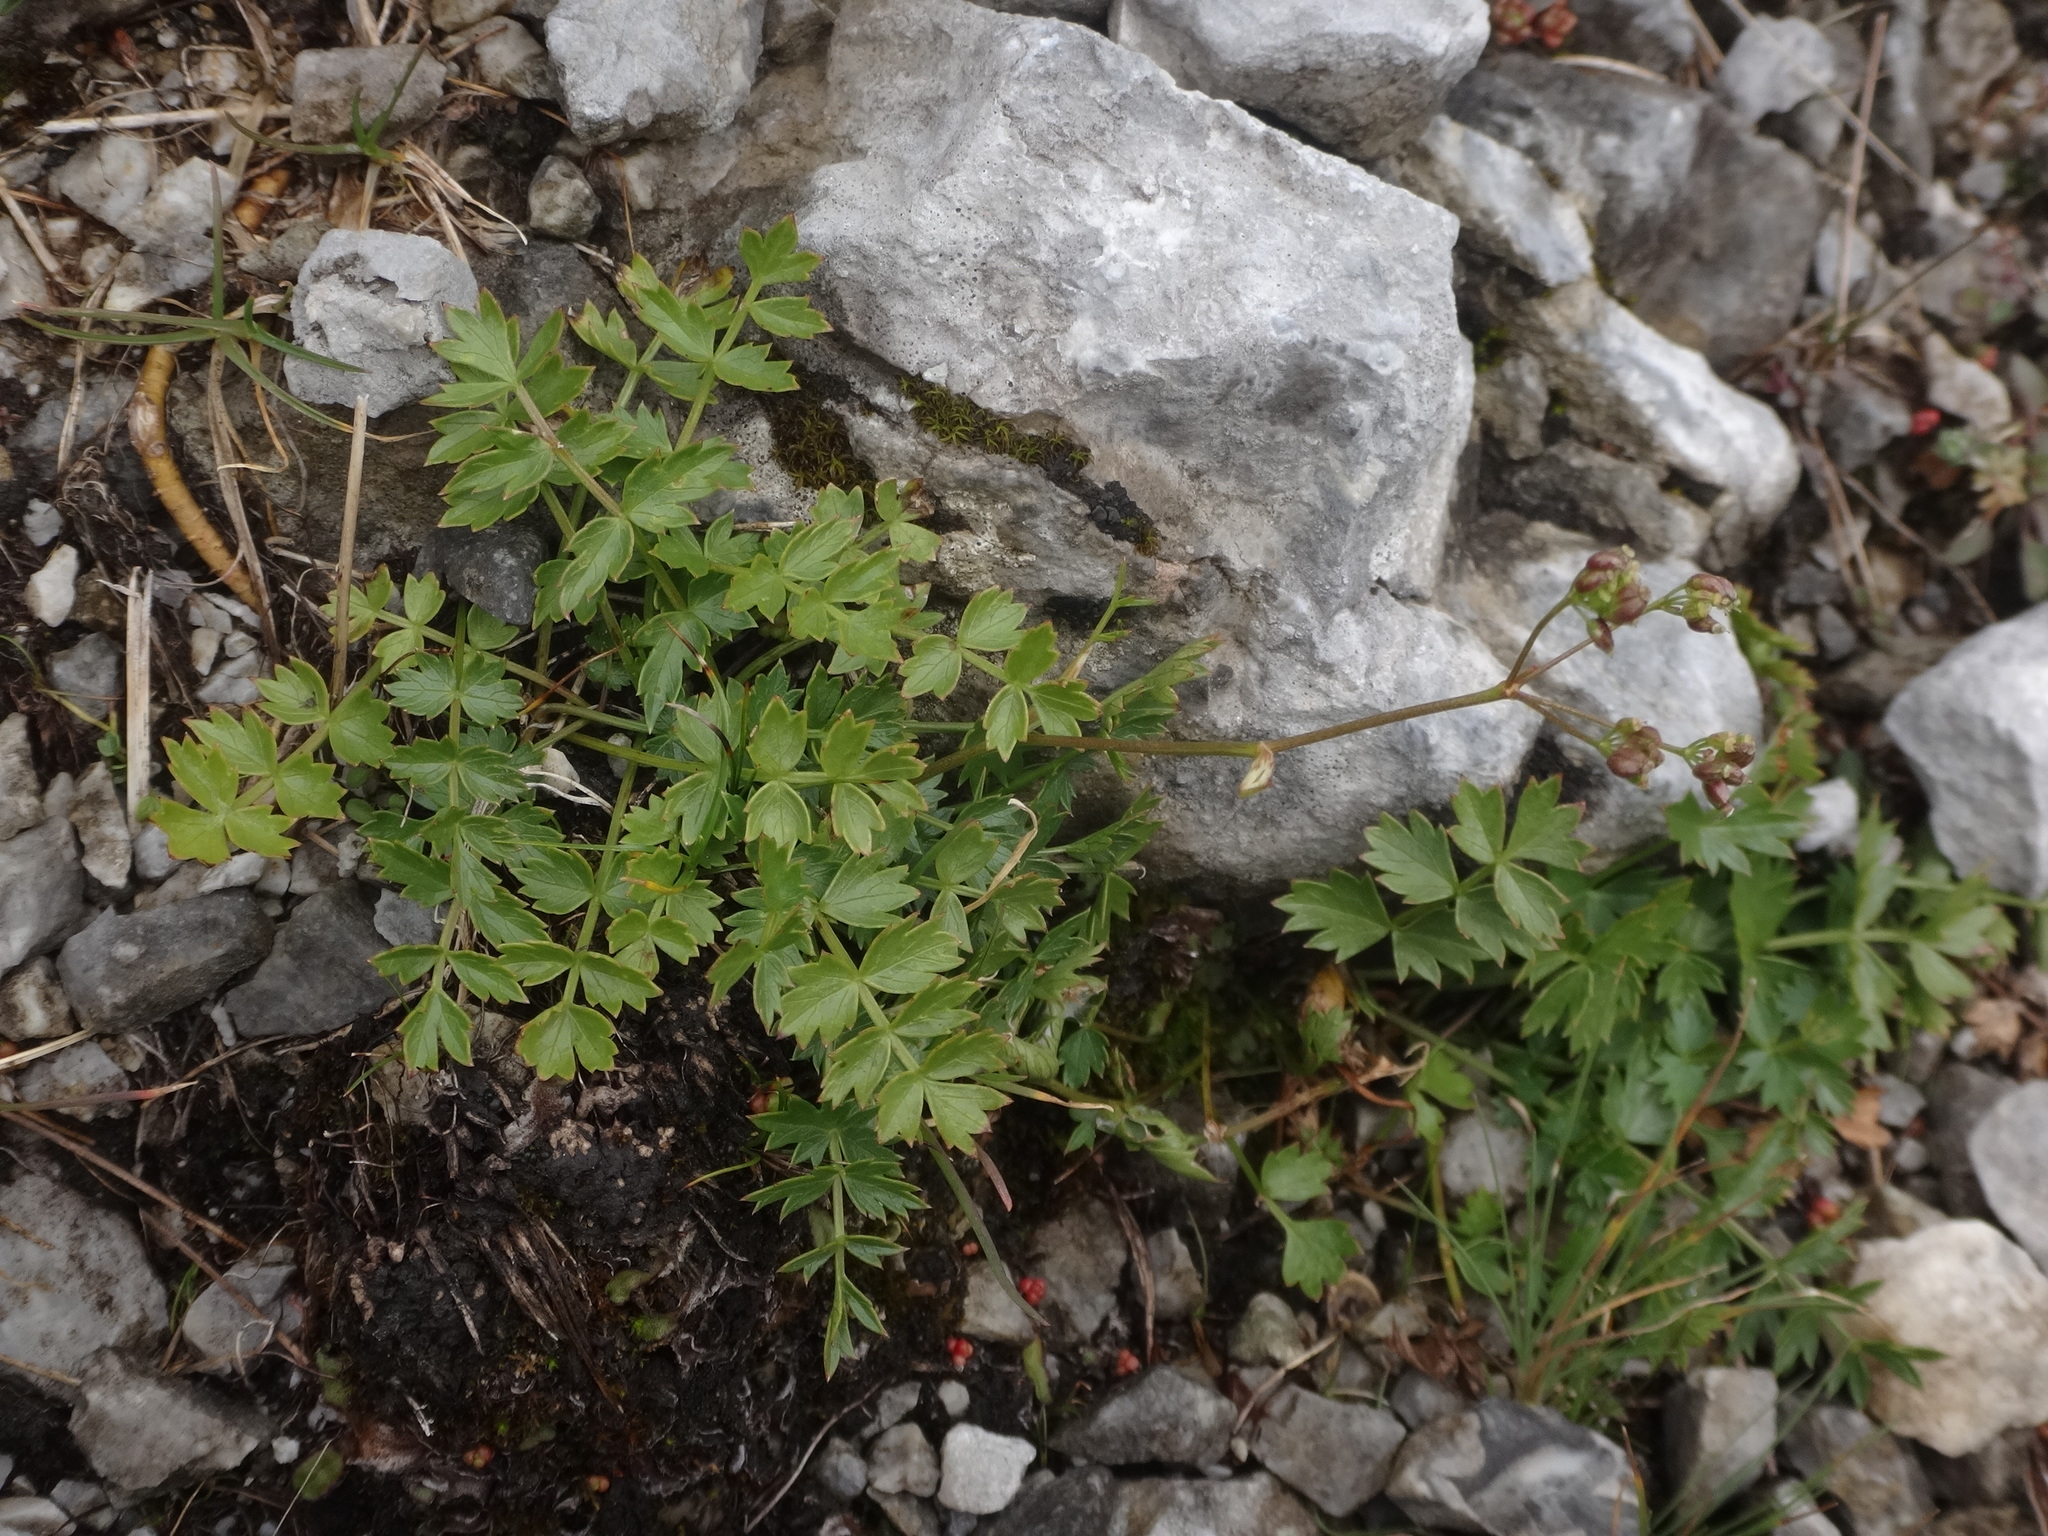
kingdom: Plantae
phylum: Tracheophyta
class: Magnoliopsida
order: Apiales
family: Apiaceae
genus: Pimpinella
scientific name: Pimpinella alpina
